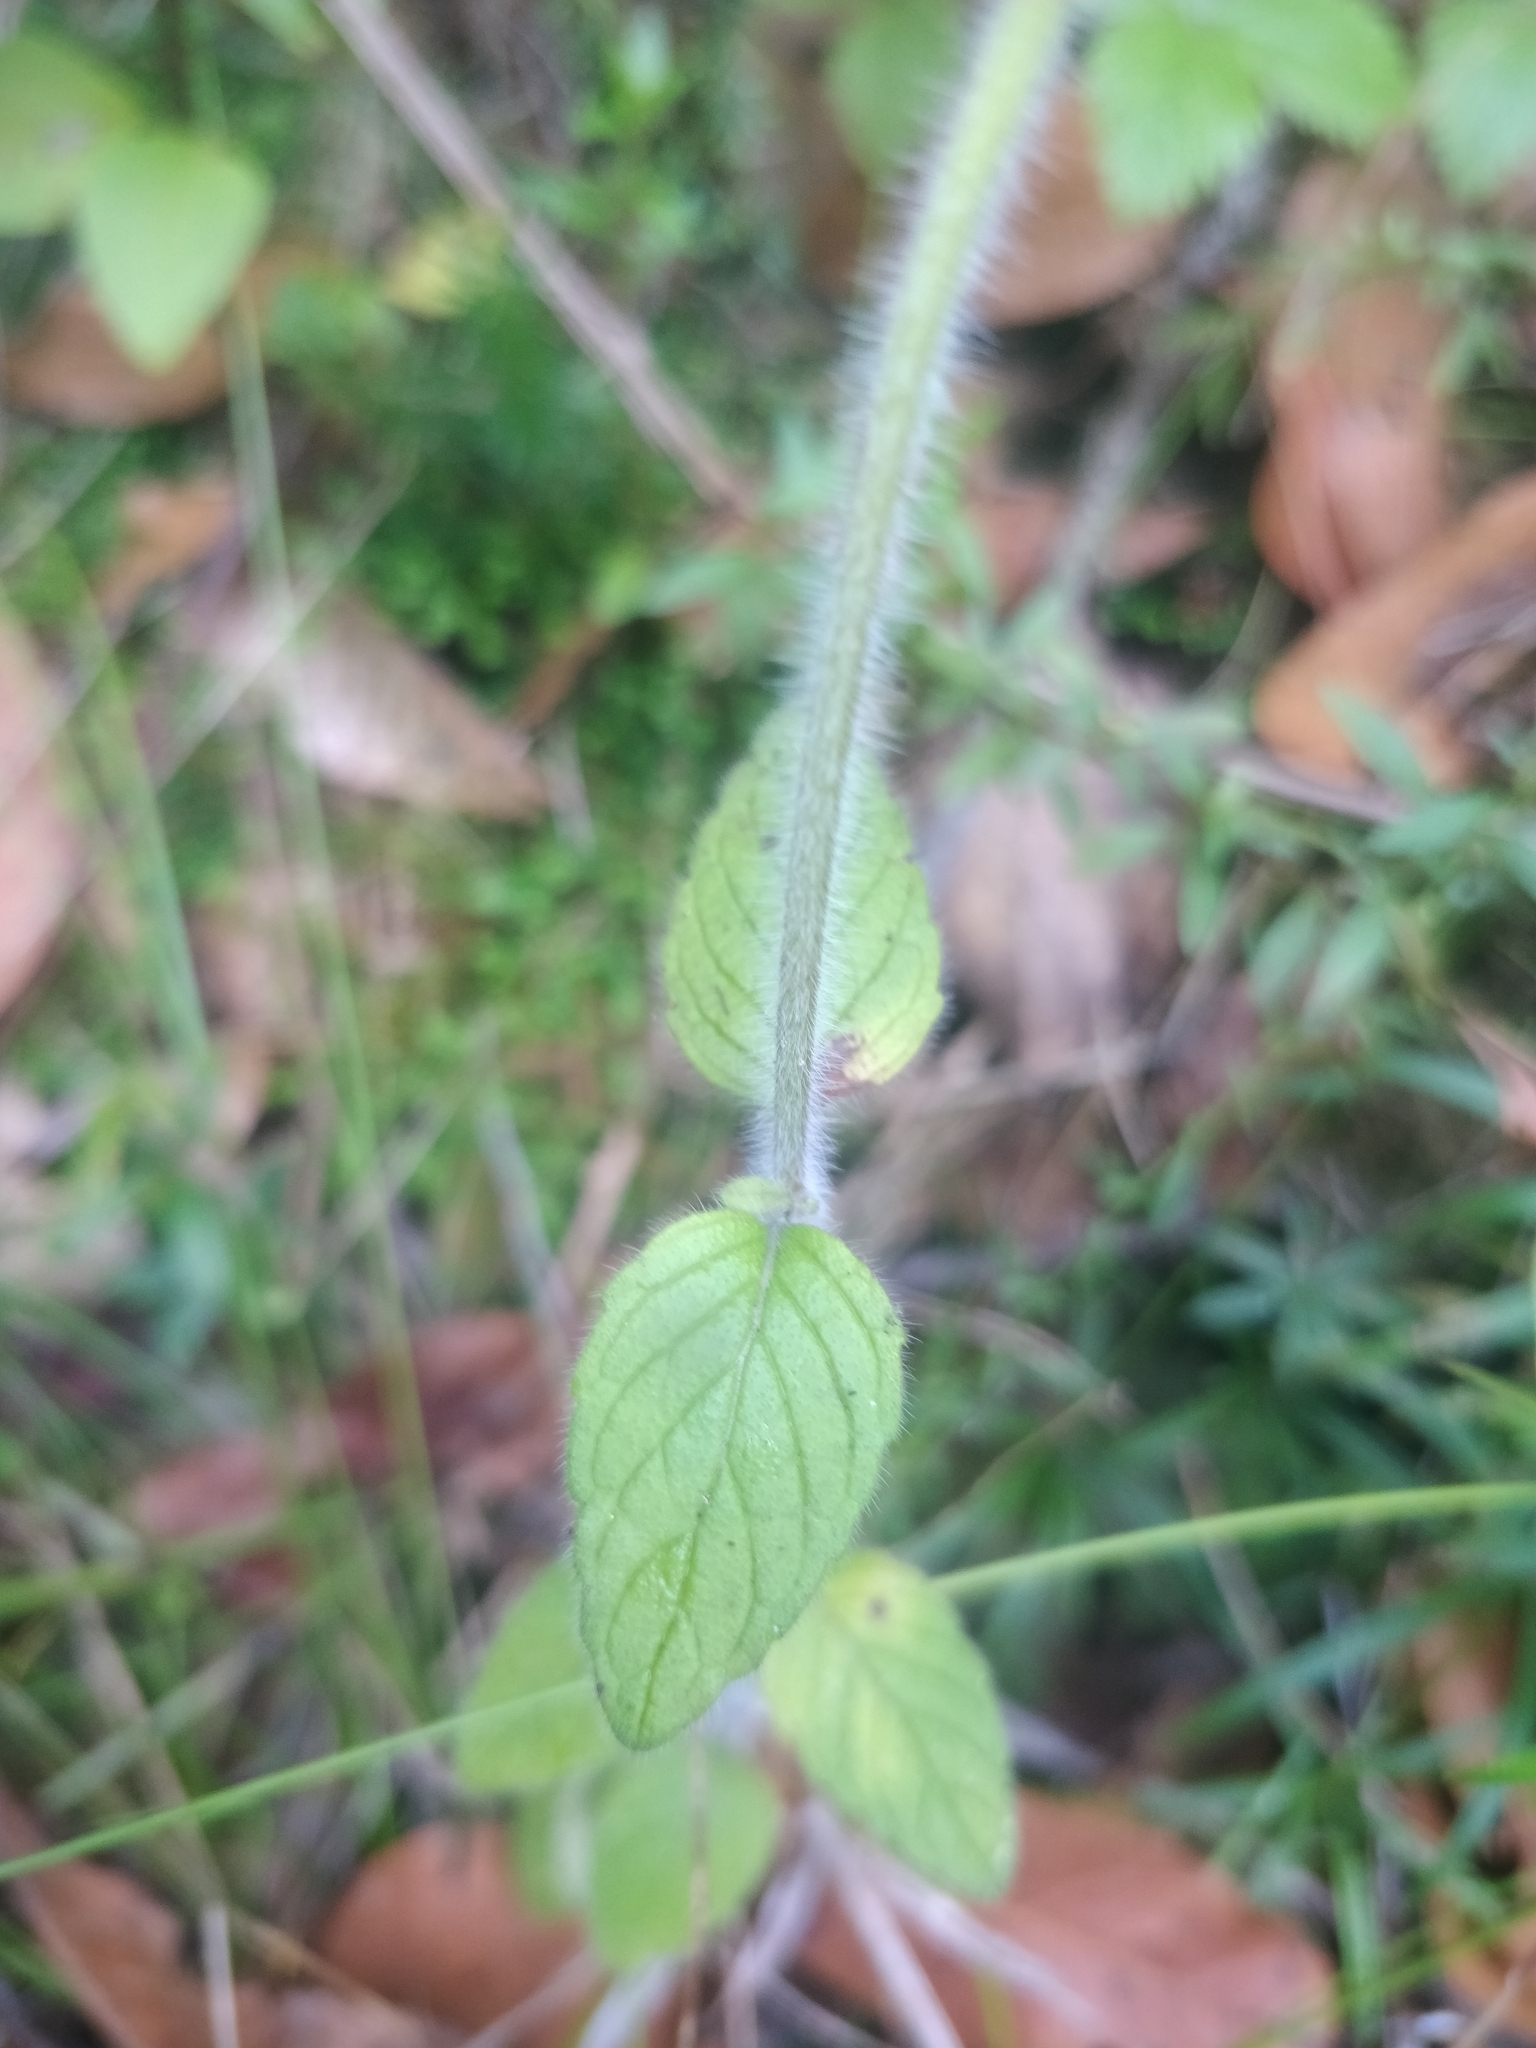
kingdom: Plantae
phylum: Tracheophyta
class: Magnoliopsida
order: Lamiales
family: Lamiaceae
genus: Clinopodium
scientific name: Clinopodium vulgare
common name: Wild basil
